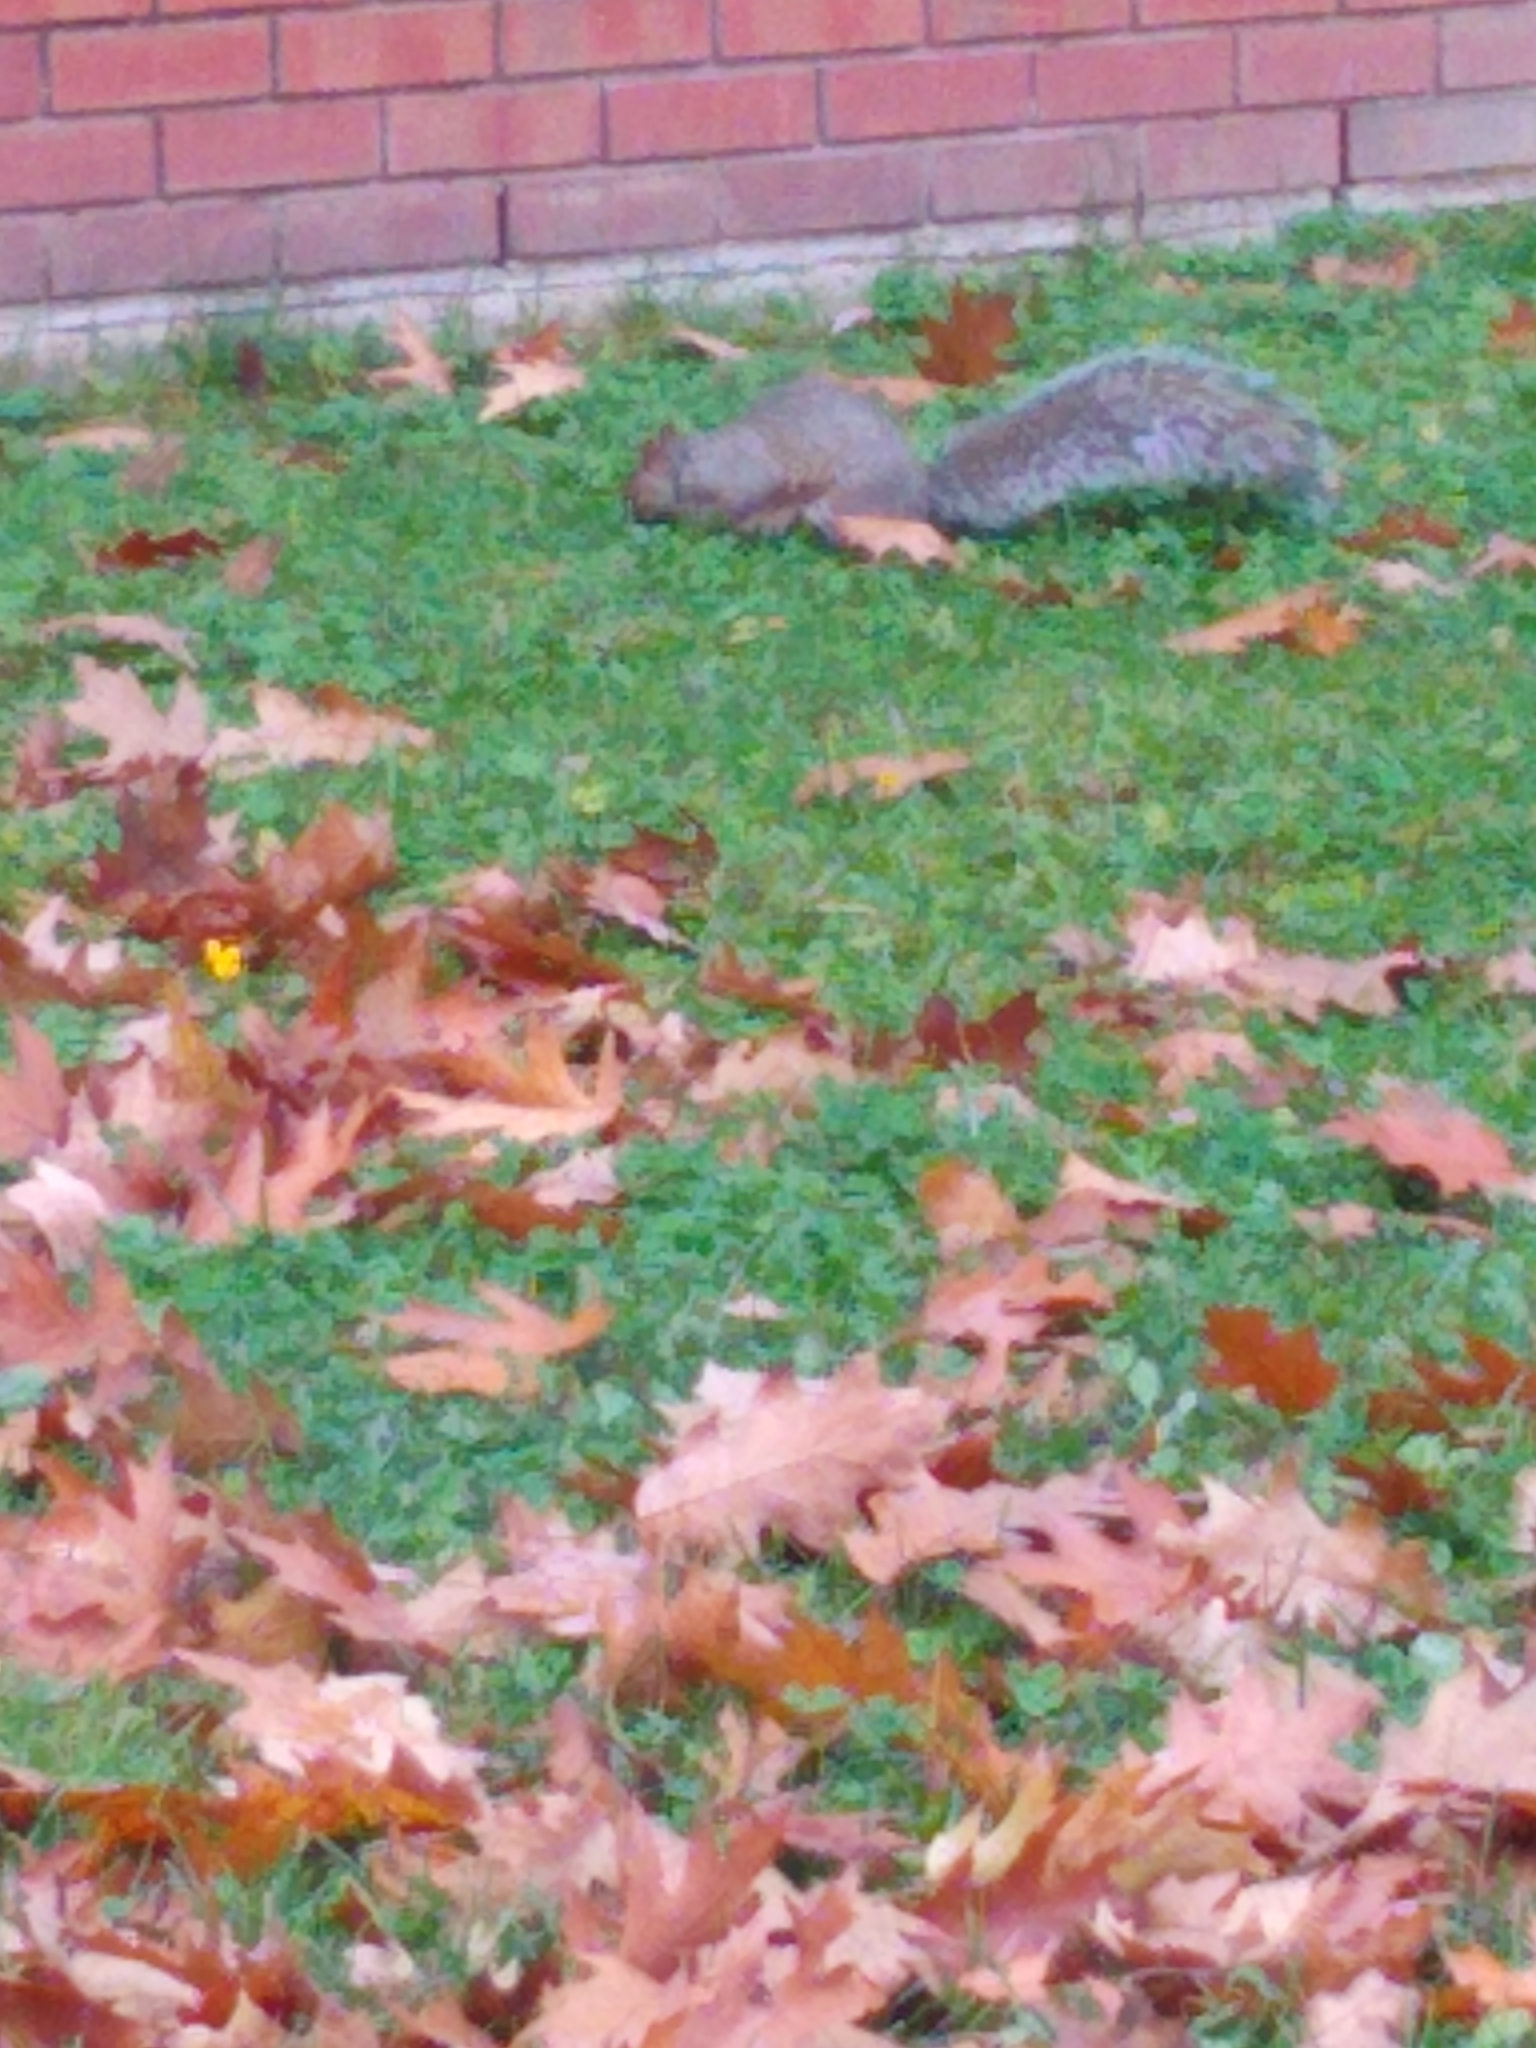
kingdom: Animalia
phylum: Chordata
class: Mammalia
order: Rodentia
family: Sciuridae
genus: Sciurus
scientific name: Sciurus carolinensis
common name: Eastern gray squirrel
